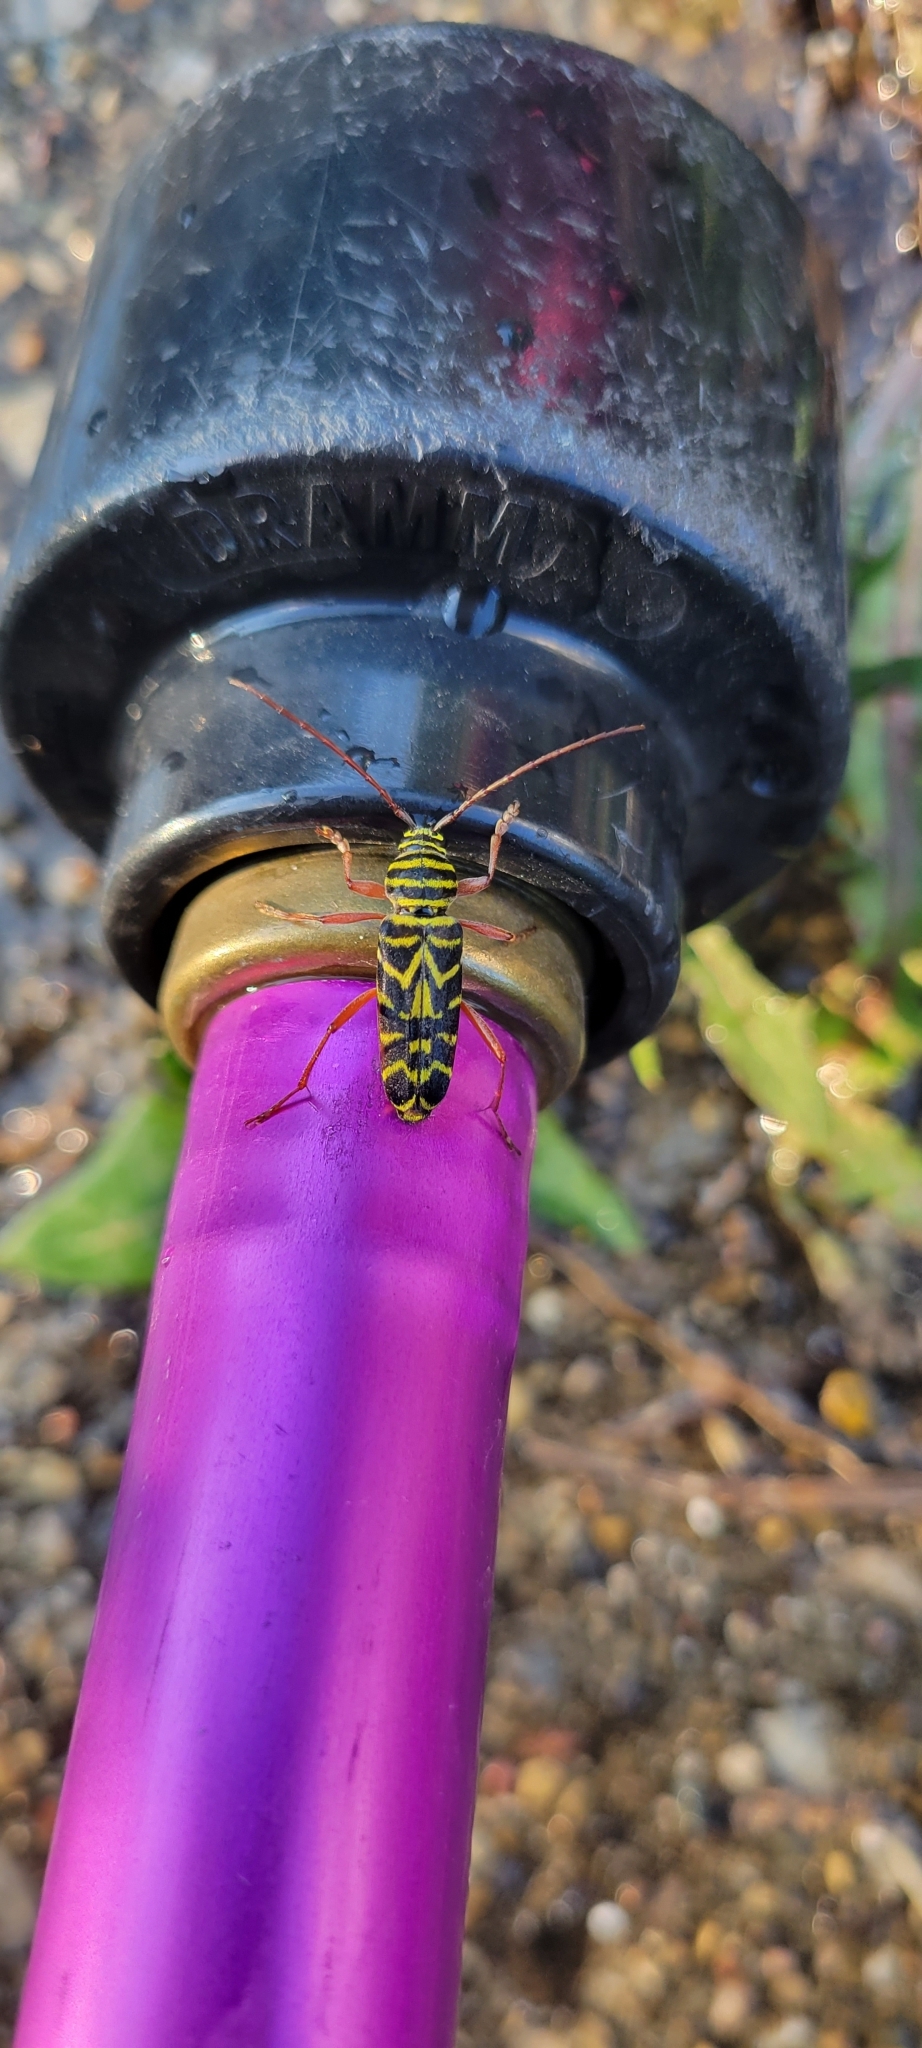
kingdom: Animalia
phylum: Arthropoda
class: Insecta
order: Coleoptera
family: Cerambycidae
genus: Megacyllene
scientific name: Megacyllene robiniae
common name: Locust borer
